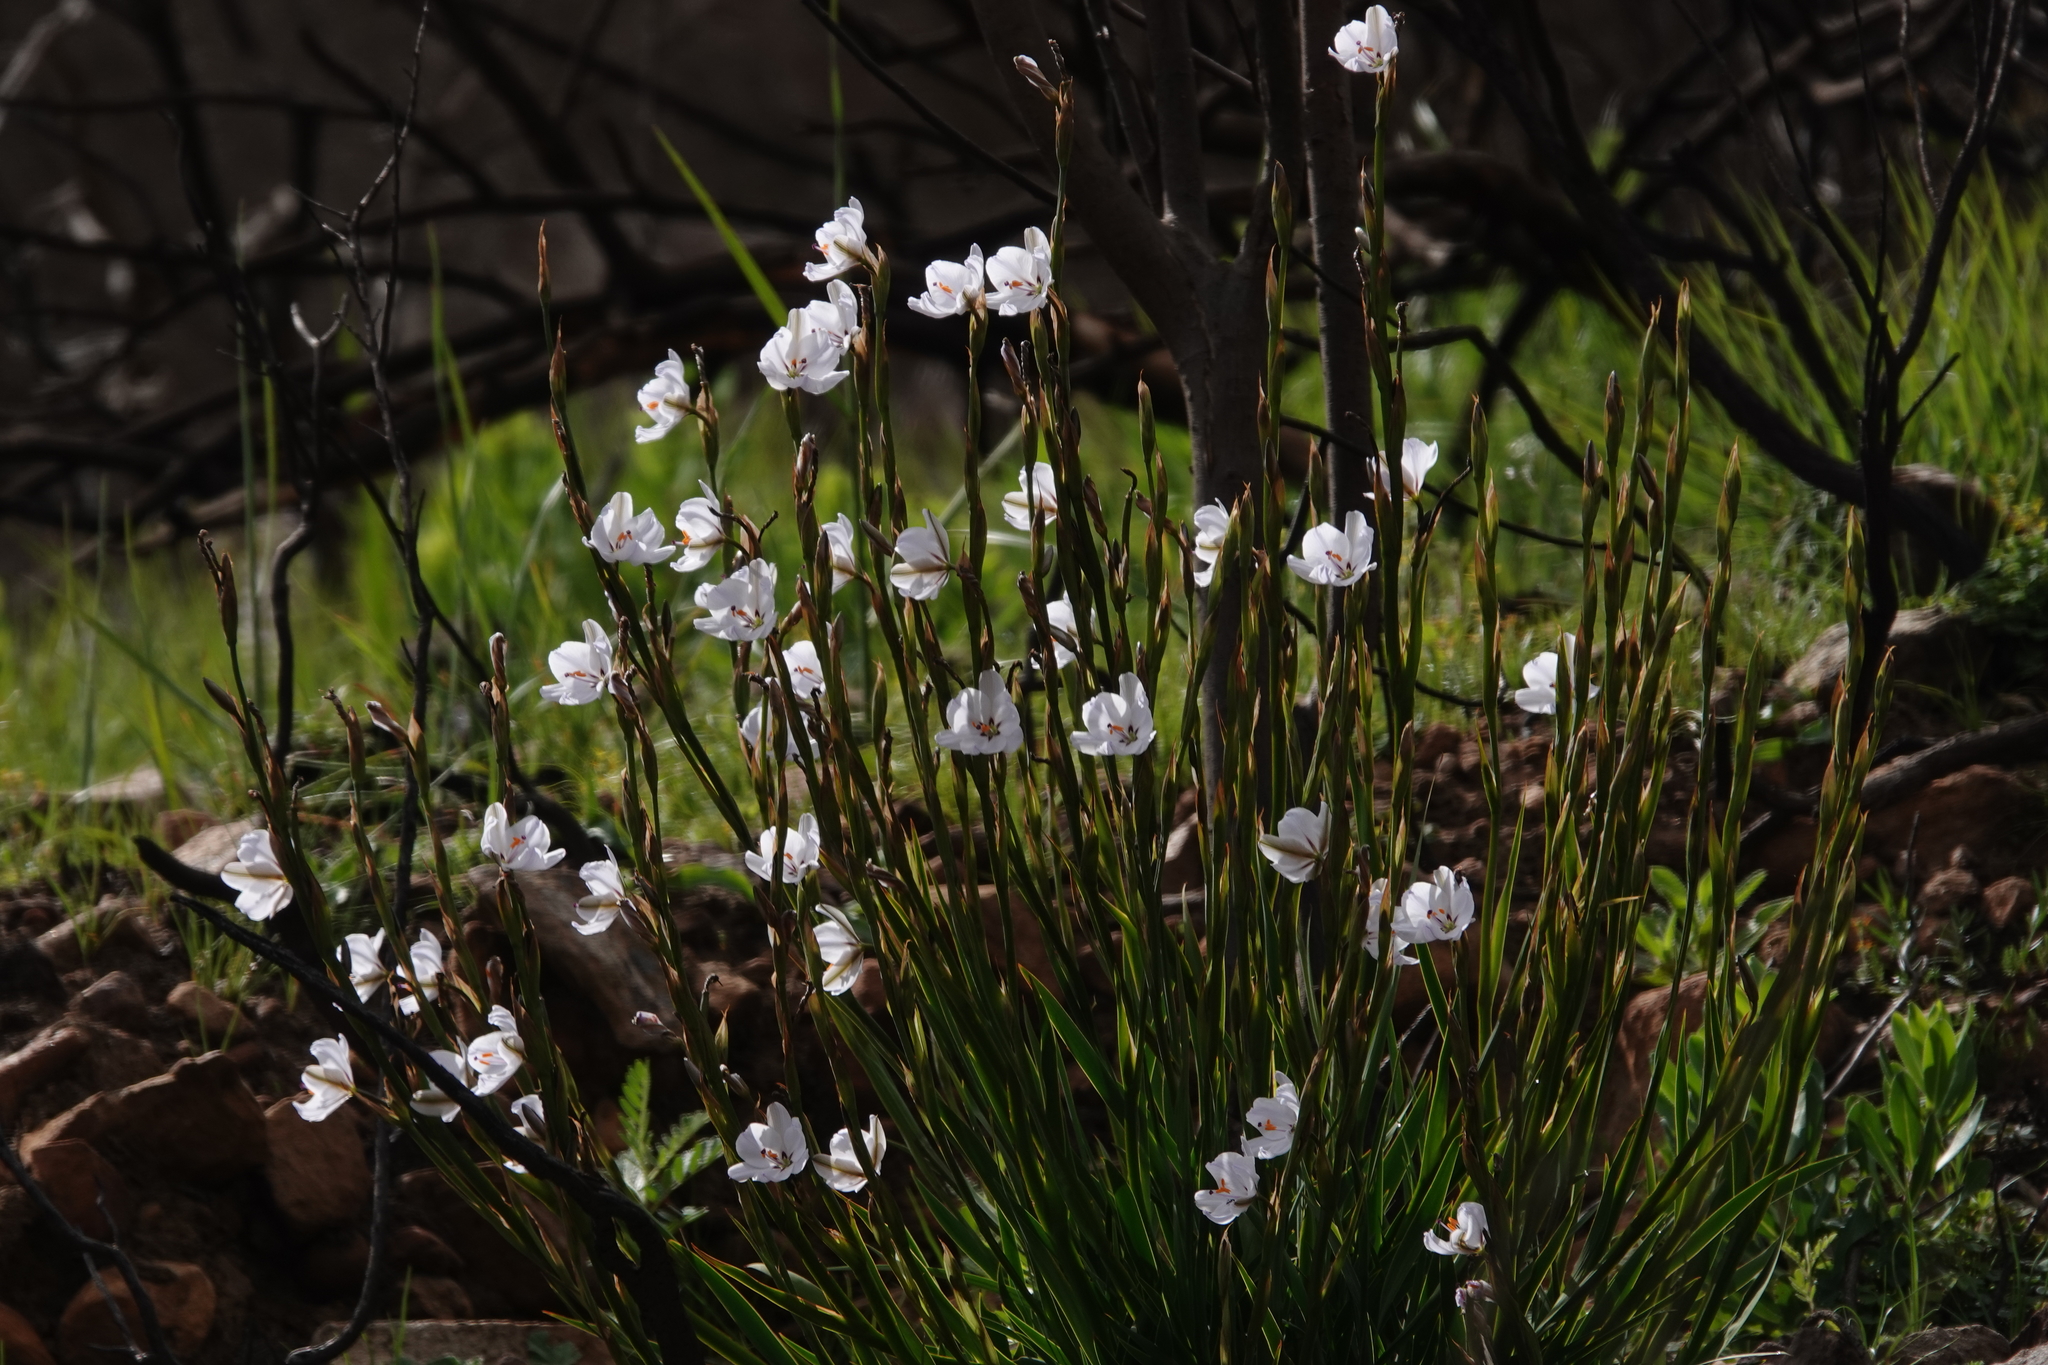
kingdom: Plantae
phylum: Tracheophyta
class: Liliopsida
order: Asparagales
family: Iridaceae
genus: Aristea
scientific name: Aristea spiralis
